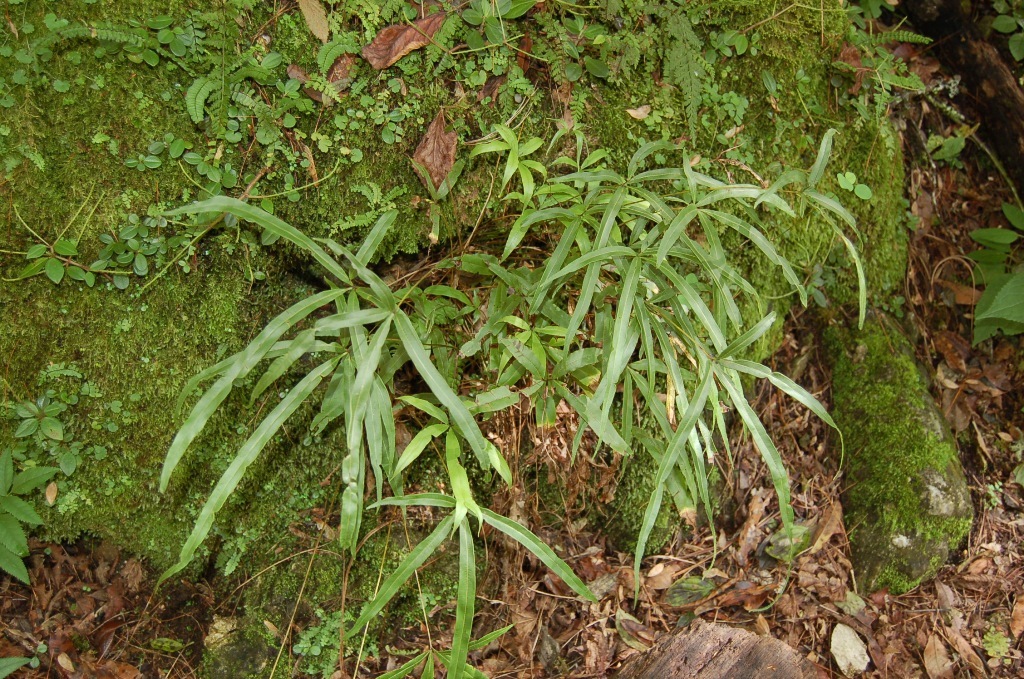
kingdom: Plantae
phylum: Tracheophyta
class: Polypodiopsida
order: Polypodiales
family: Pteridaceae
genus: Pteris
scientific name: Pteris cretica
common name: Ribbon fern
